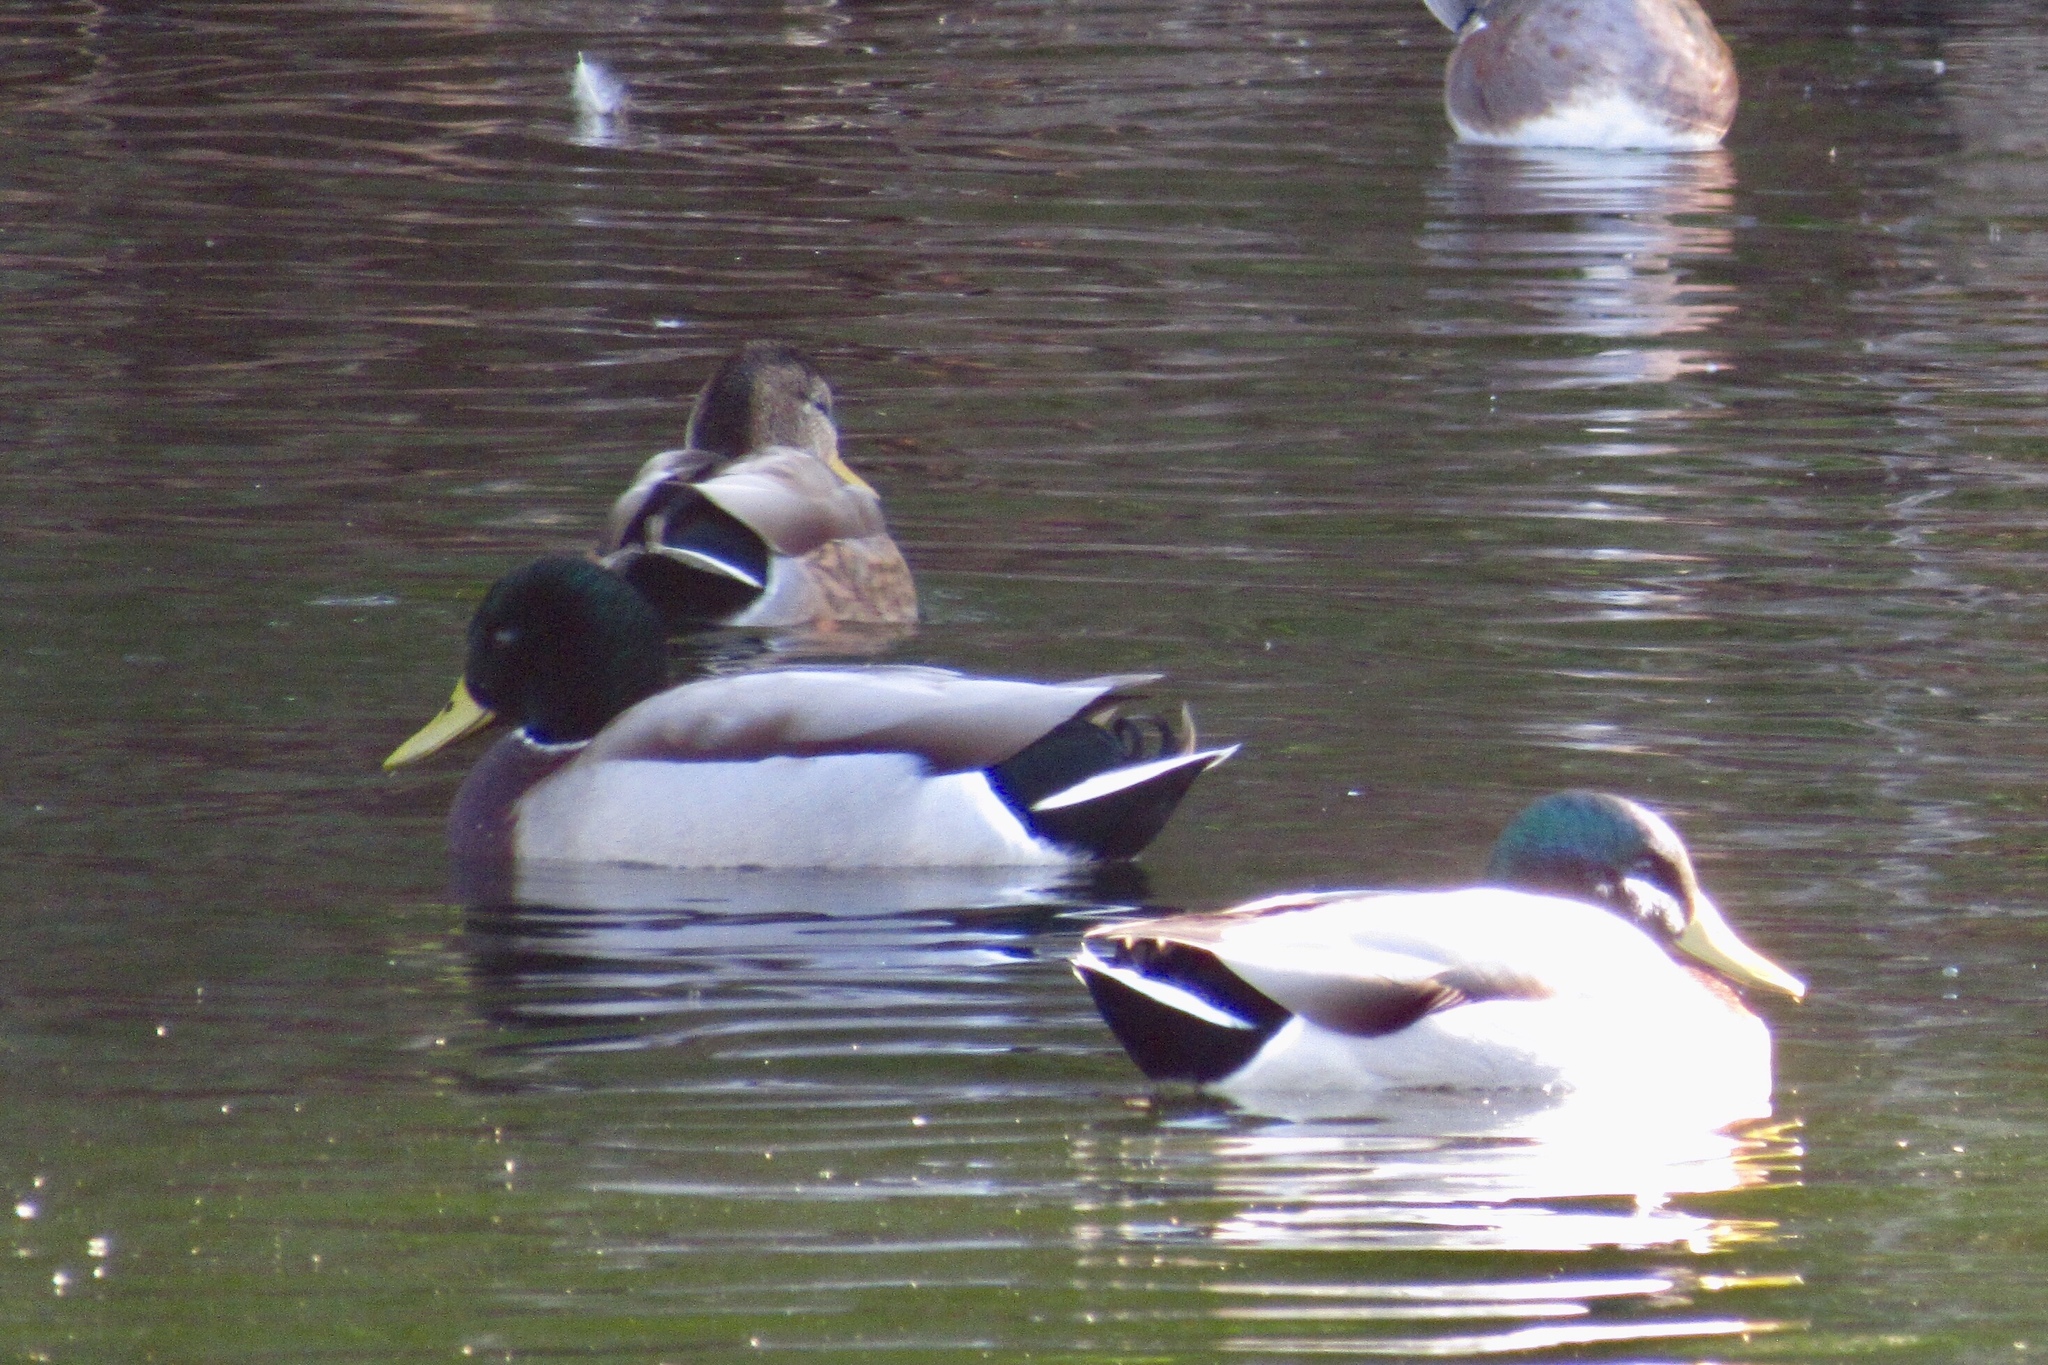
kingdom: Animalia
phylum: Chordata
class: Aves
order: Anseriformes
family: Anatidae
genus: Anas
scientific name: Anas platyrhynchos
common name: Mallard
